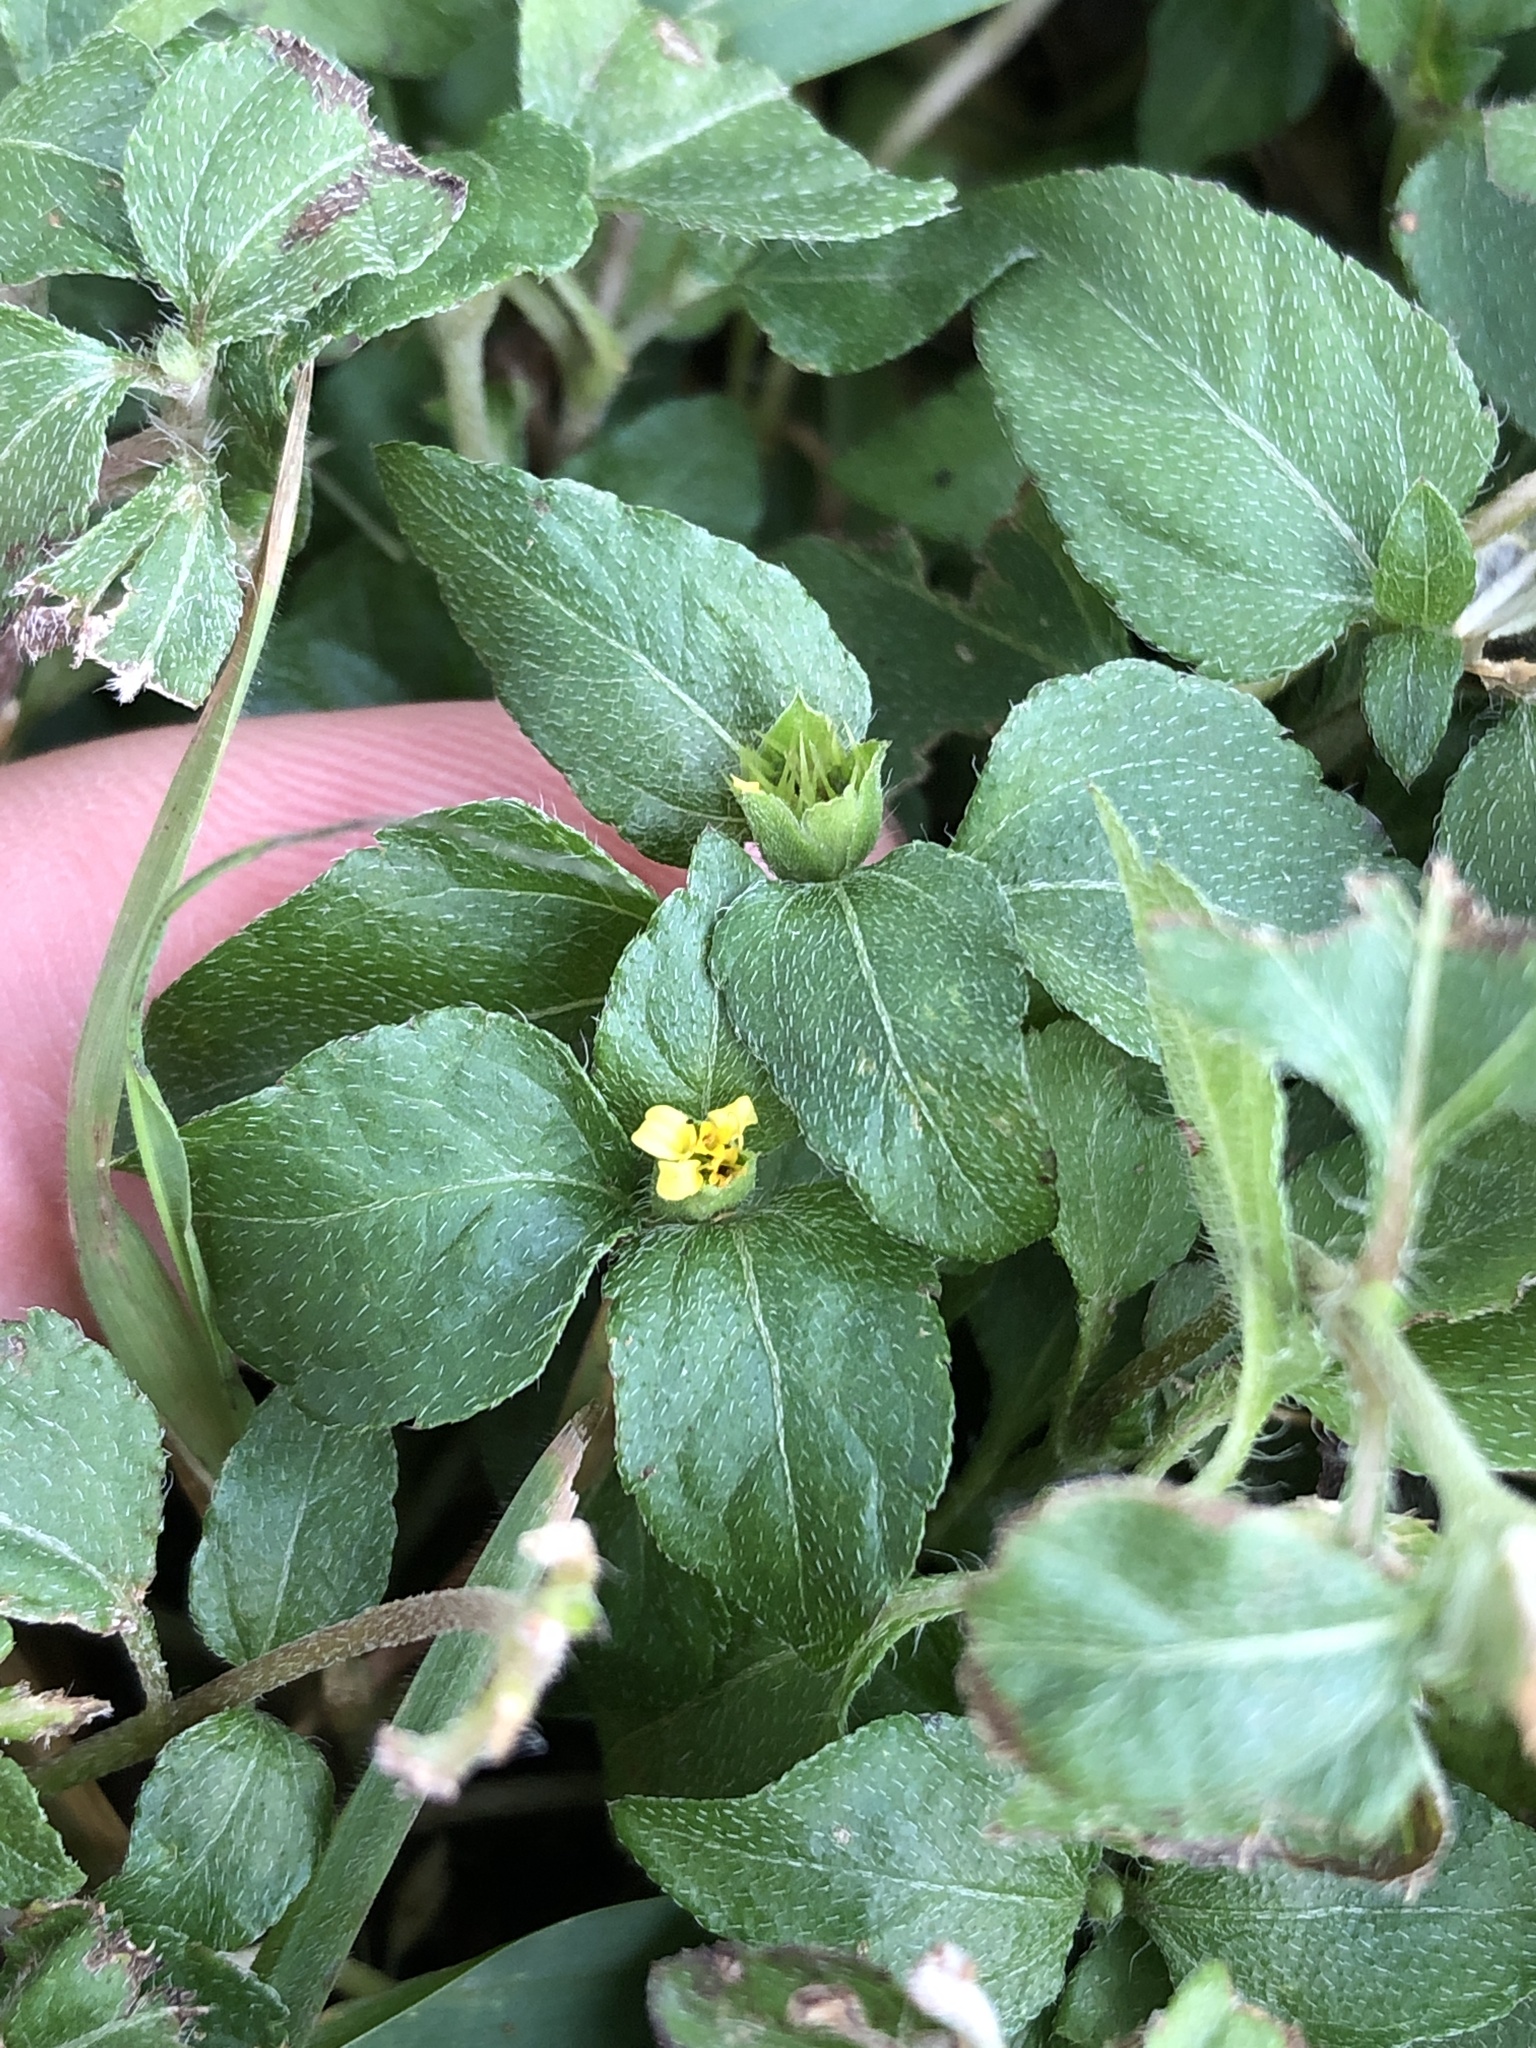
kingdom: Plantae
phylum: Tracheophyta
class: Magnoliopsida
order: Asterales
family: Asteraceae
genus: Calyptocarpus
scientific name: Calyptocarpus vialis
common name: Straggler daisy
